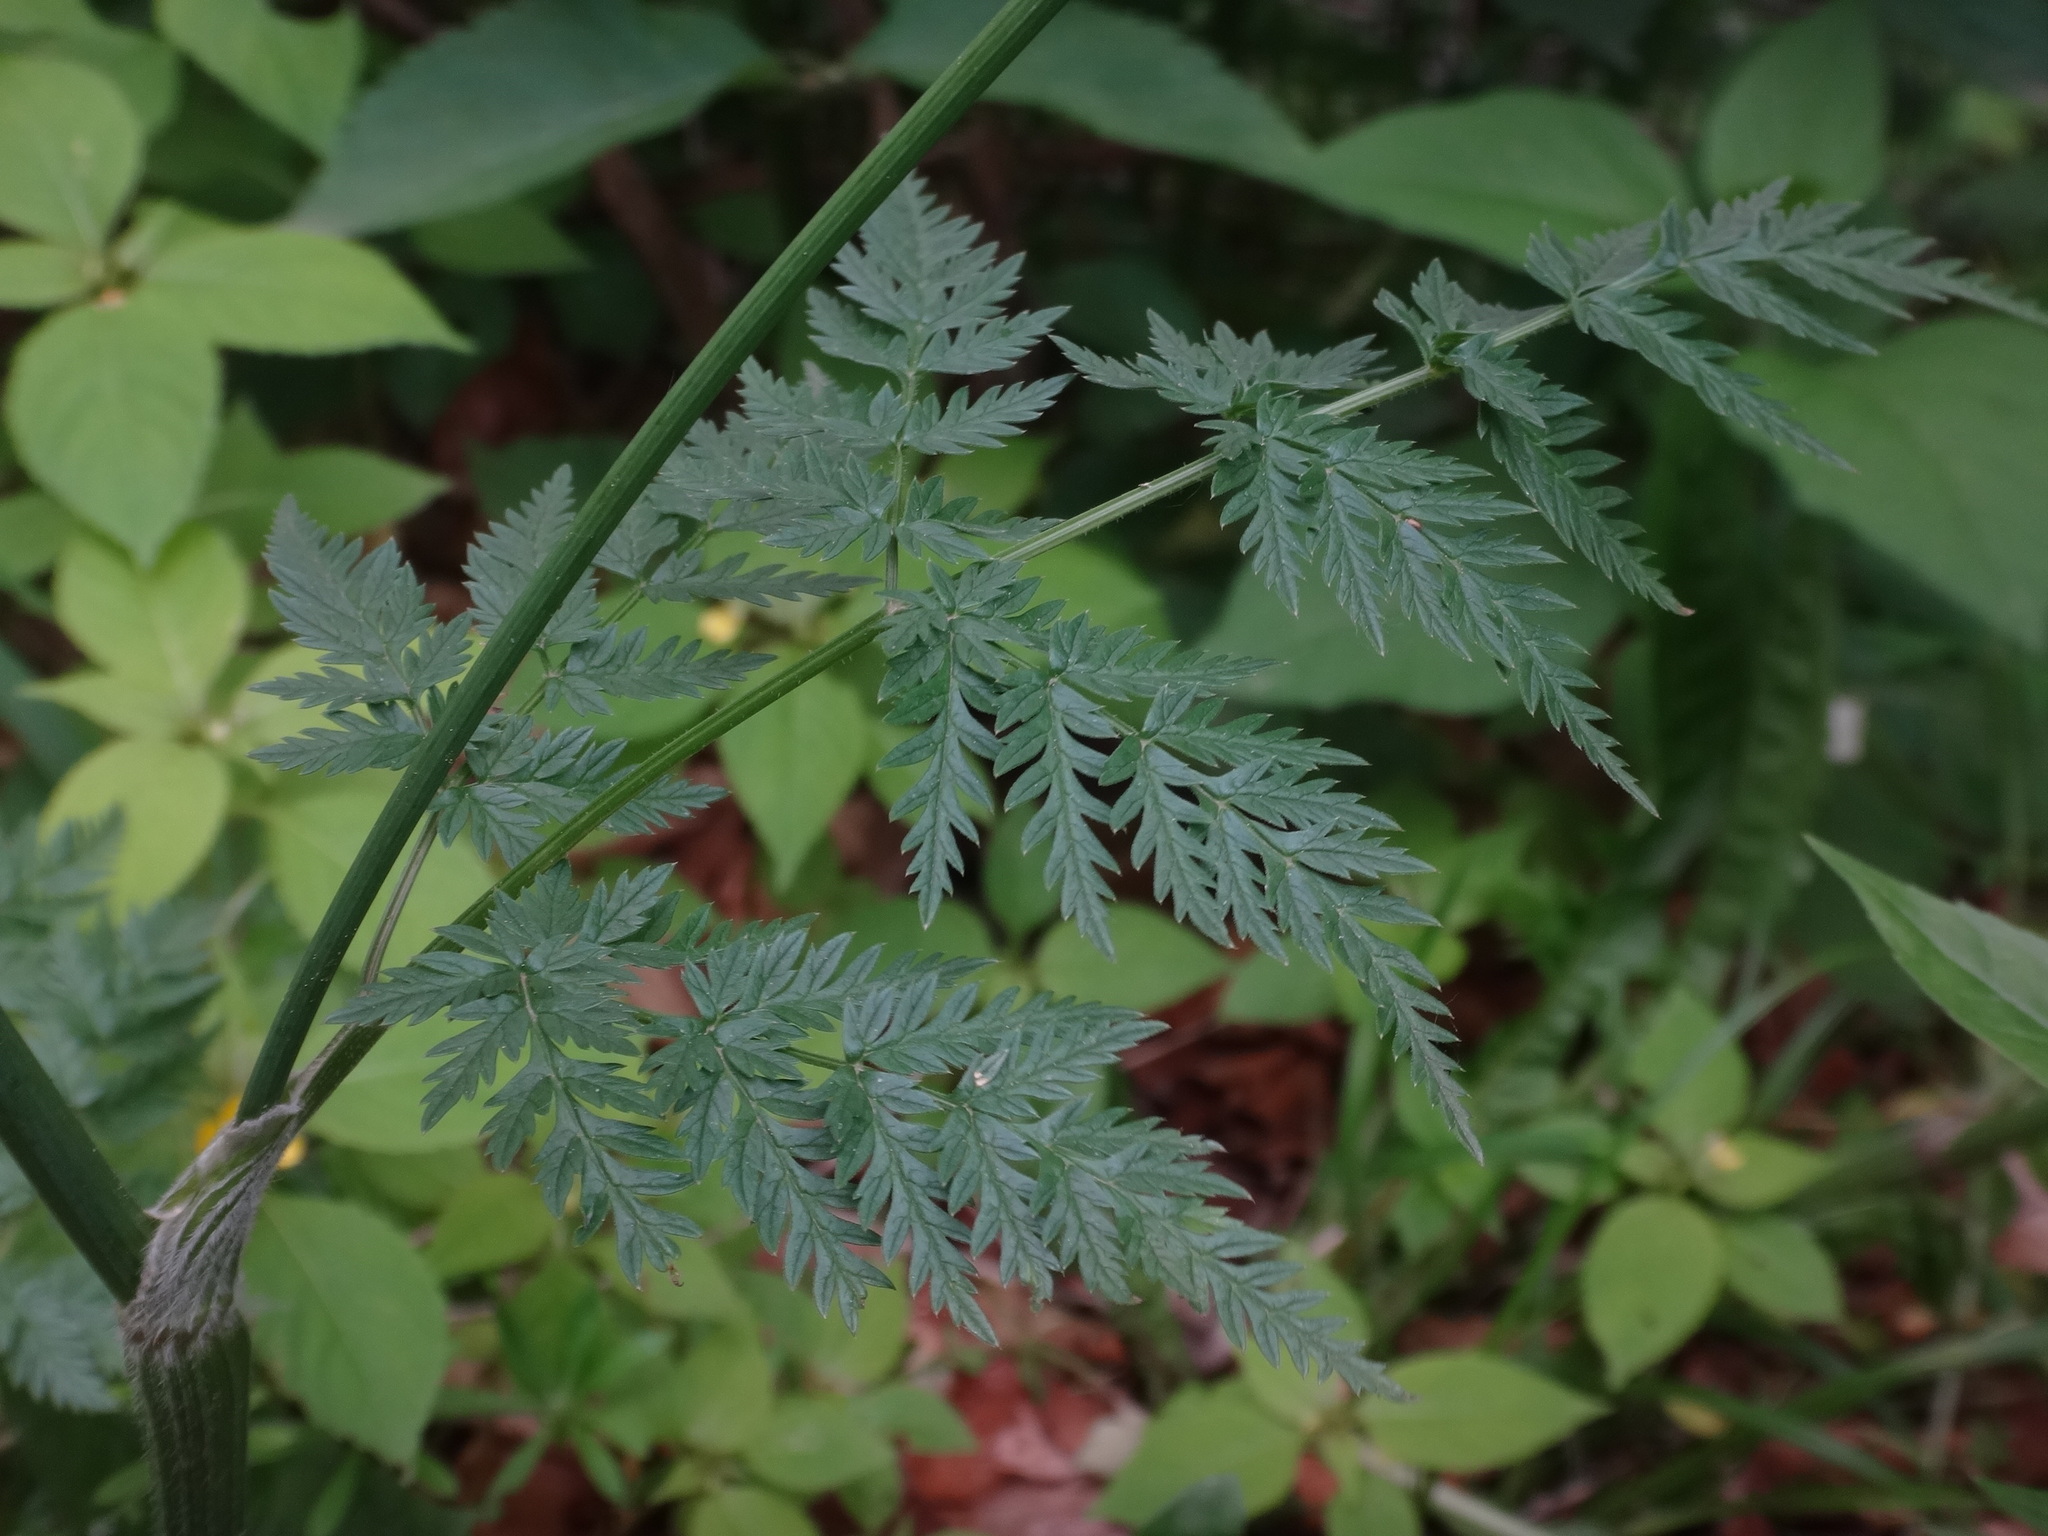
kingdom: Plantae
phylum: Tracheophyta
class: Magnoliopsida
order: Apiales
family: Apiaceae
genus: Anthriscus
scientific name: Anthriscus sylvestris
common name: Cow parsley
